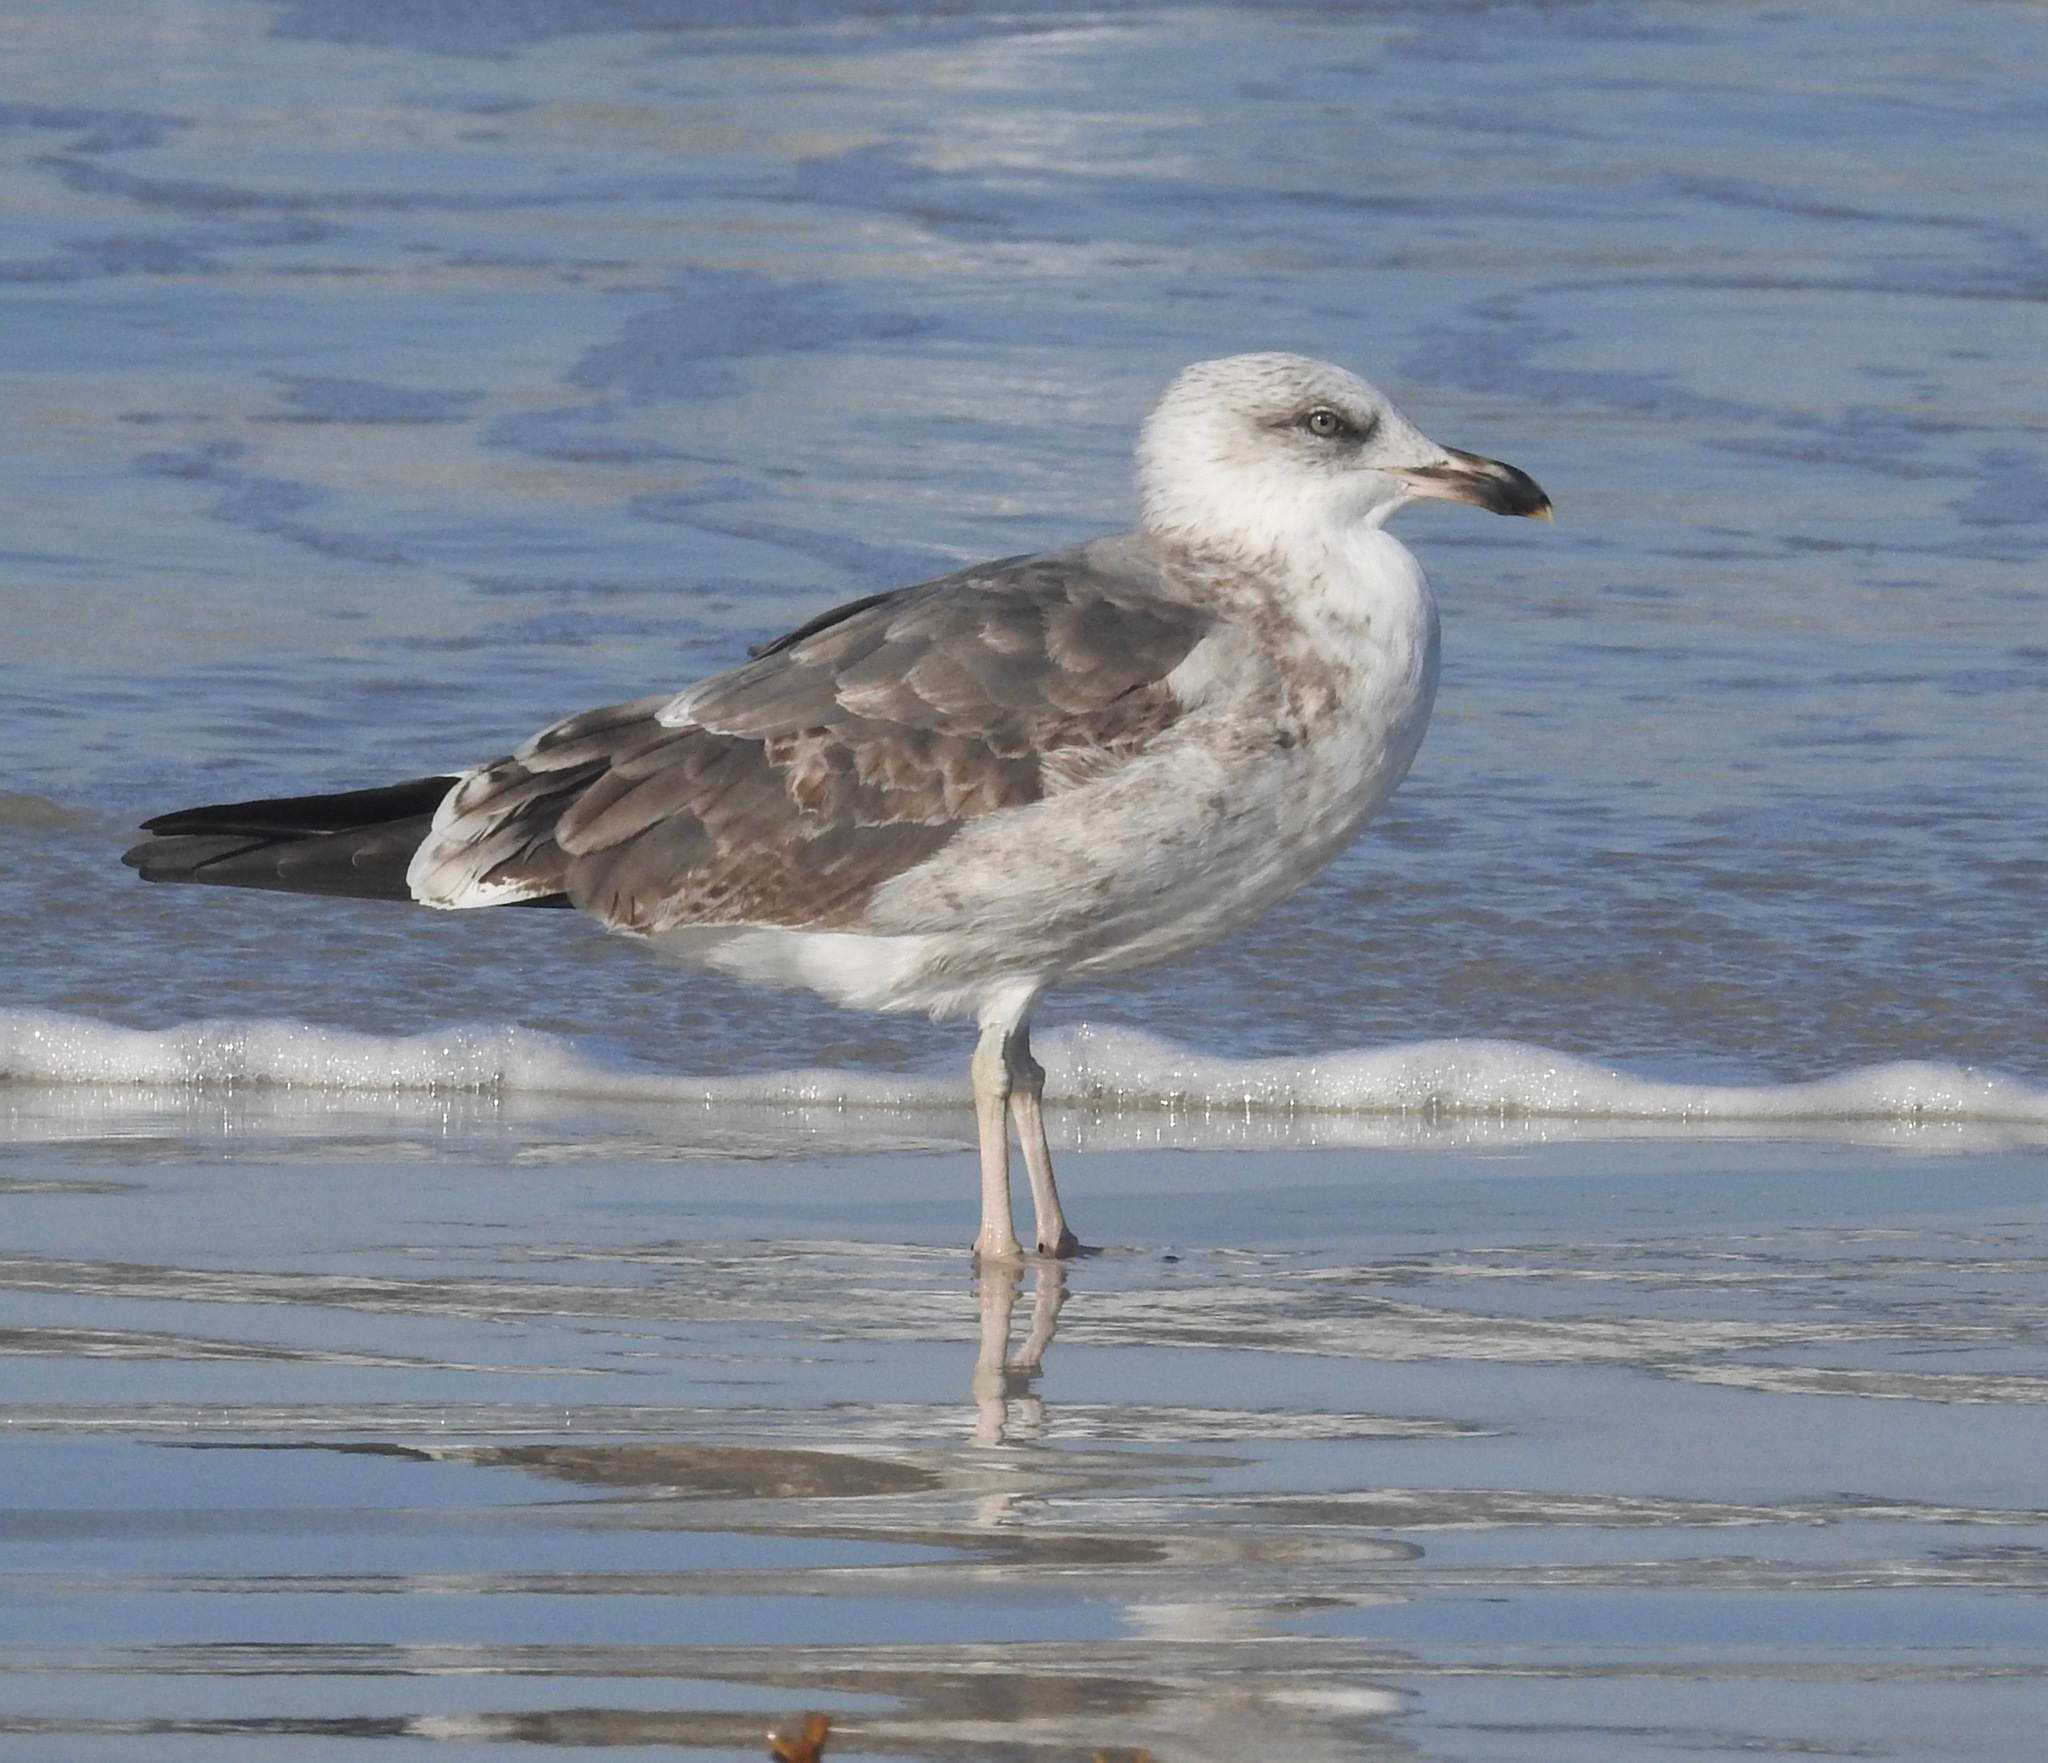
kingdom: Animalia
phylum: Chordata
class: Aves
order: Charadriiformes
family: Laridae
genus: Larus
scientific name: Larus fuscus
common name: Lesser black-backed gull
